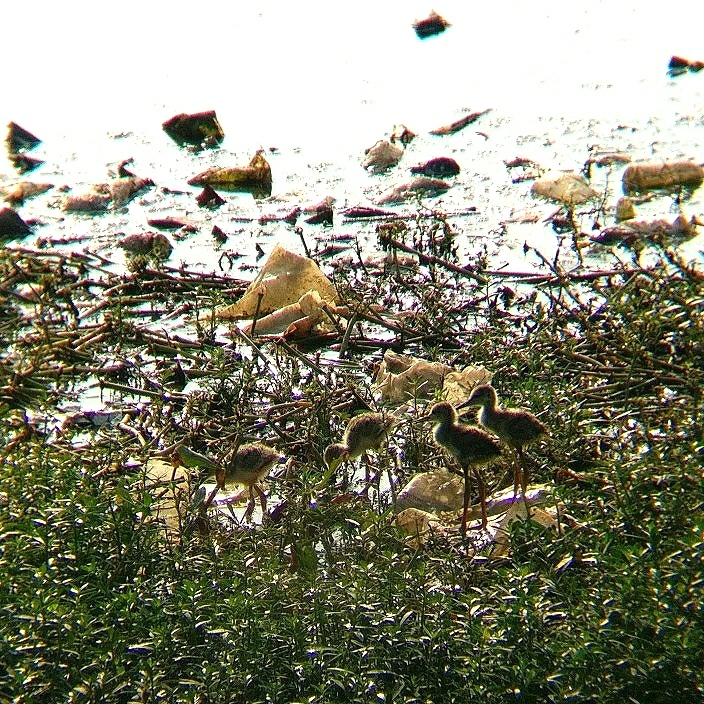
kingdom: Animalia
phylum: Chordata
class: Aves
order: Charadriiformes
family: Recurvirostridae
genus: Himantopus
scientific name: Himantopus himantopus
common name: Black-winged stilt
